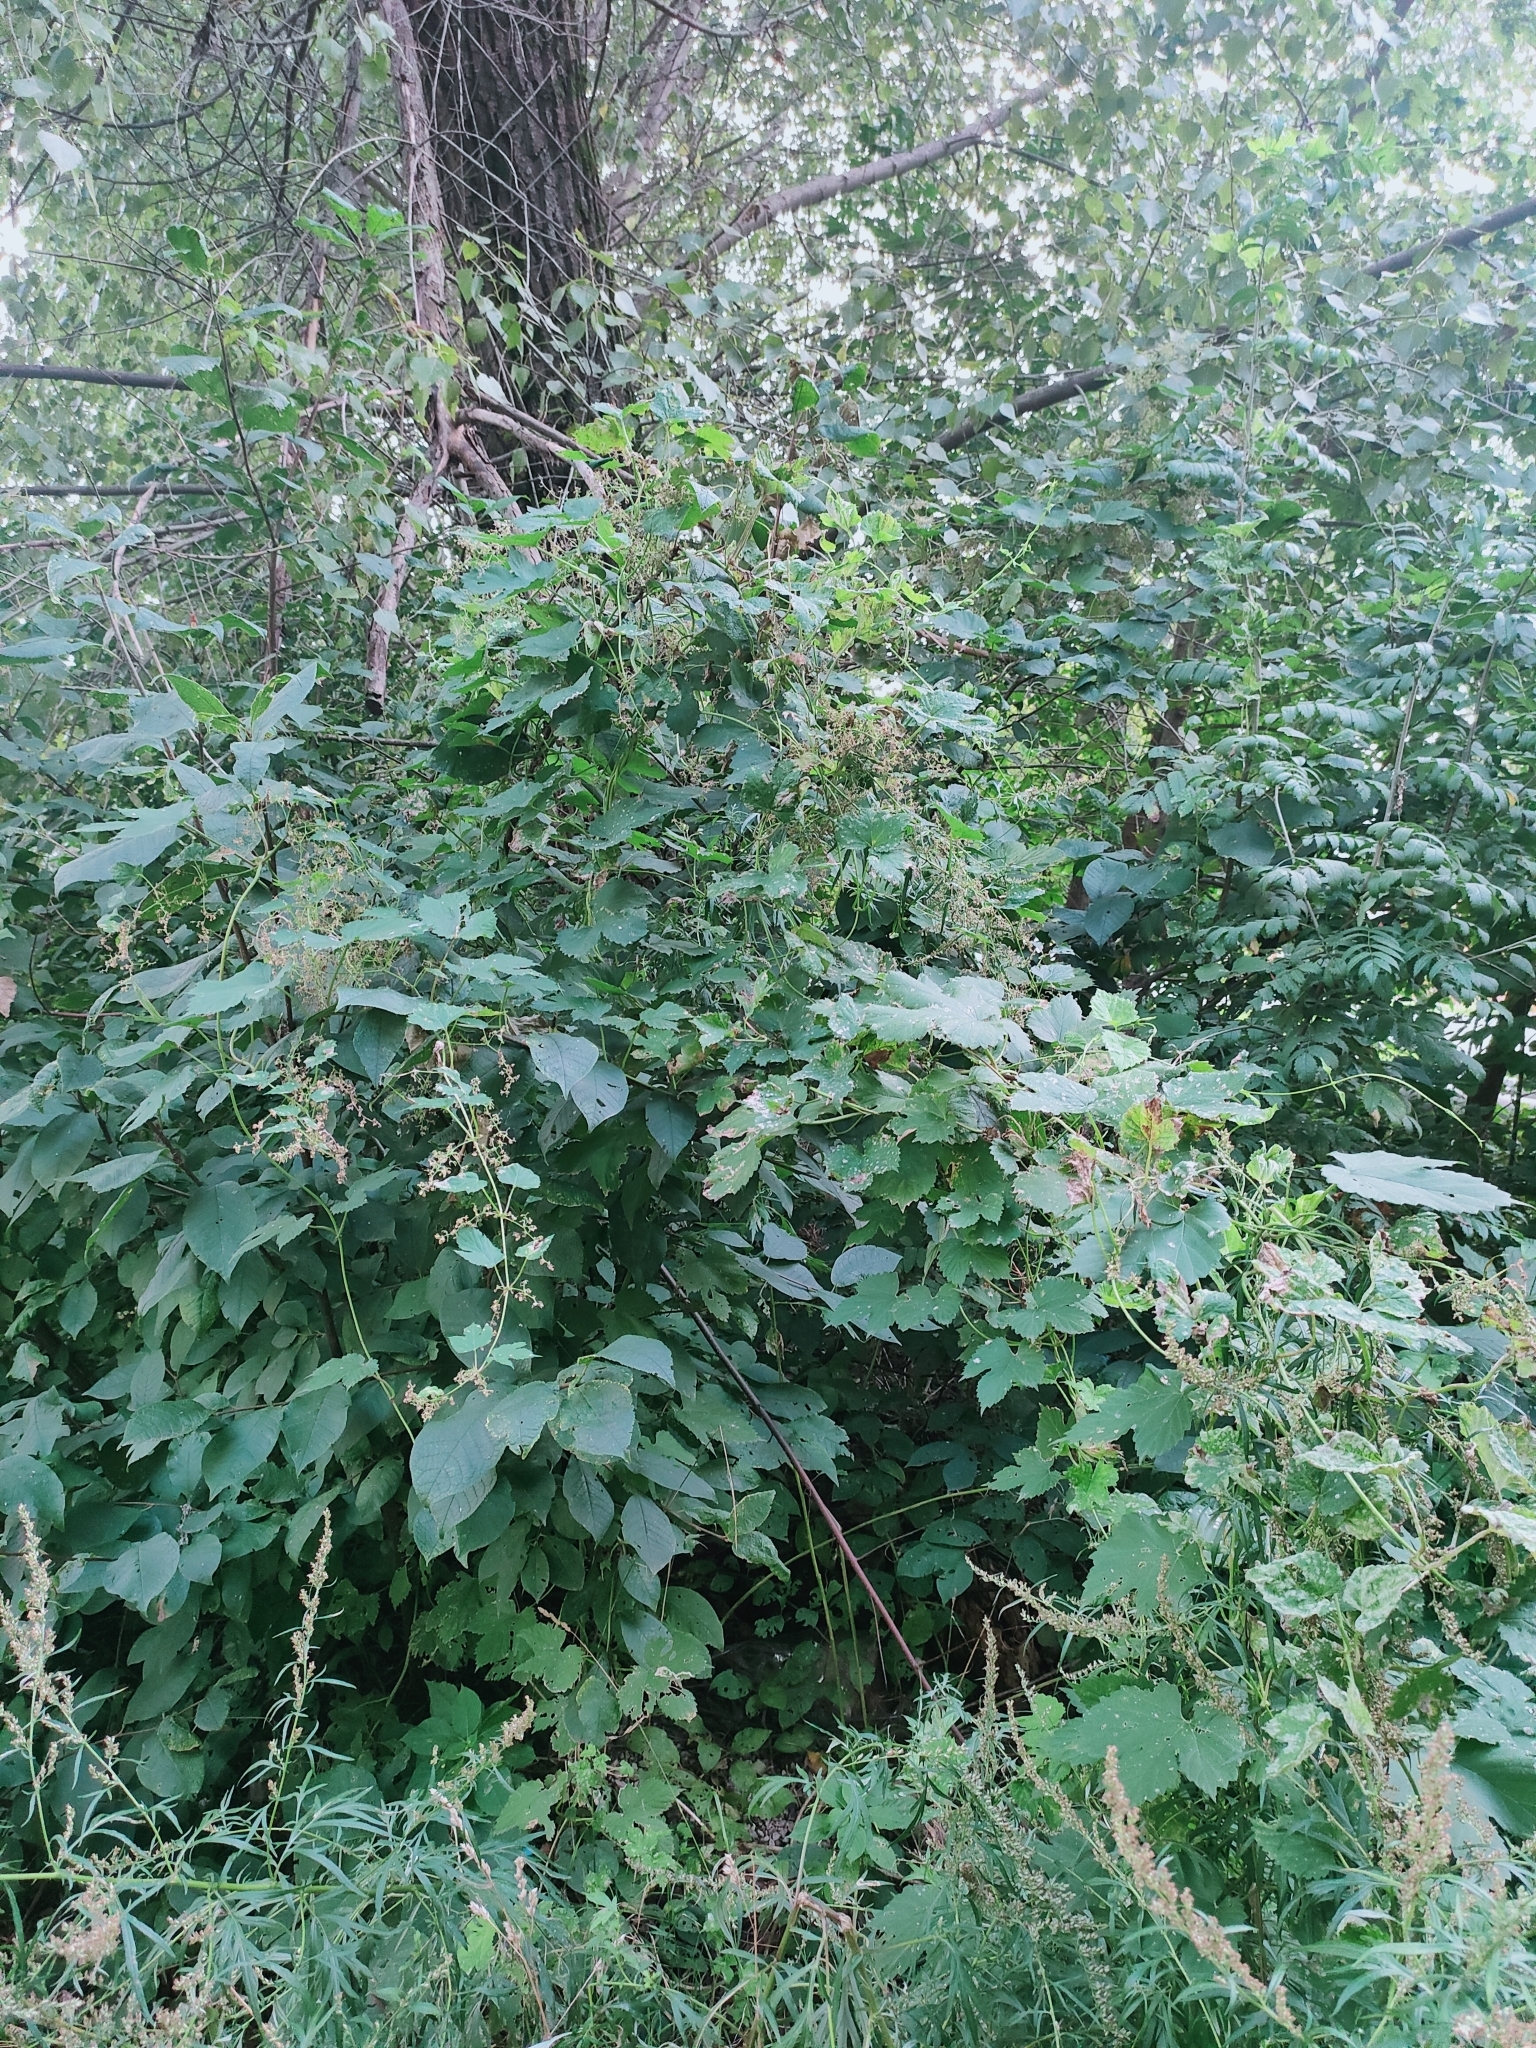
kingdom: Plantae
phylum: Tracheophyta
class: Magnoliopsida
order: Rosales
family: Cannabaceae
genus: Humulus
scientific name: Humulus lupulus
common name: Hop
